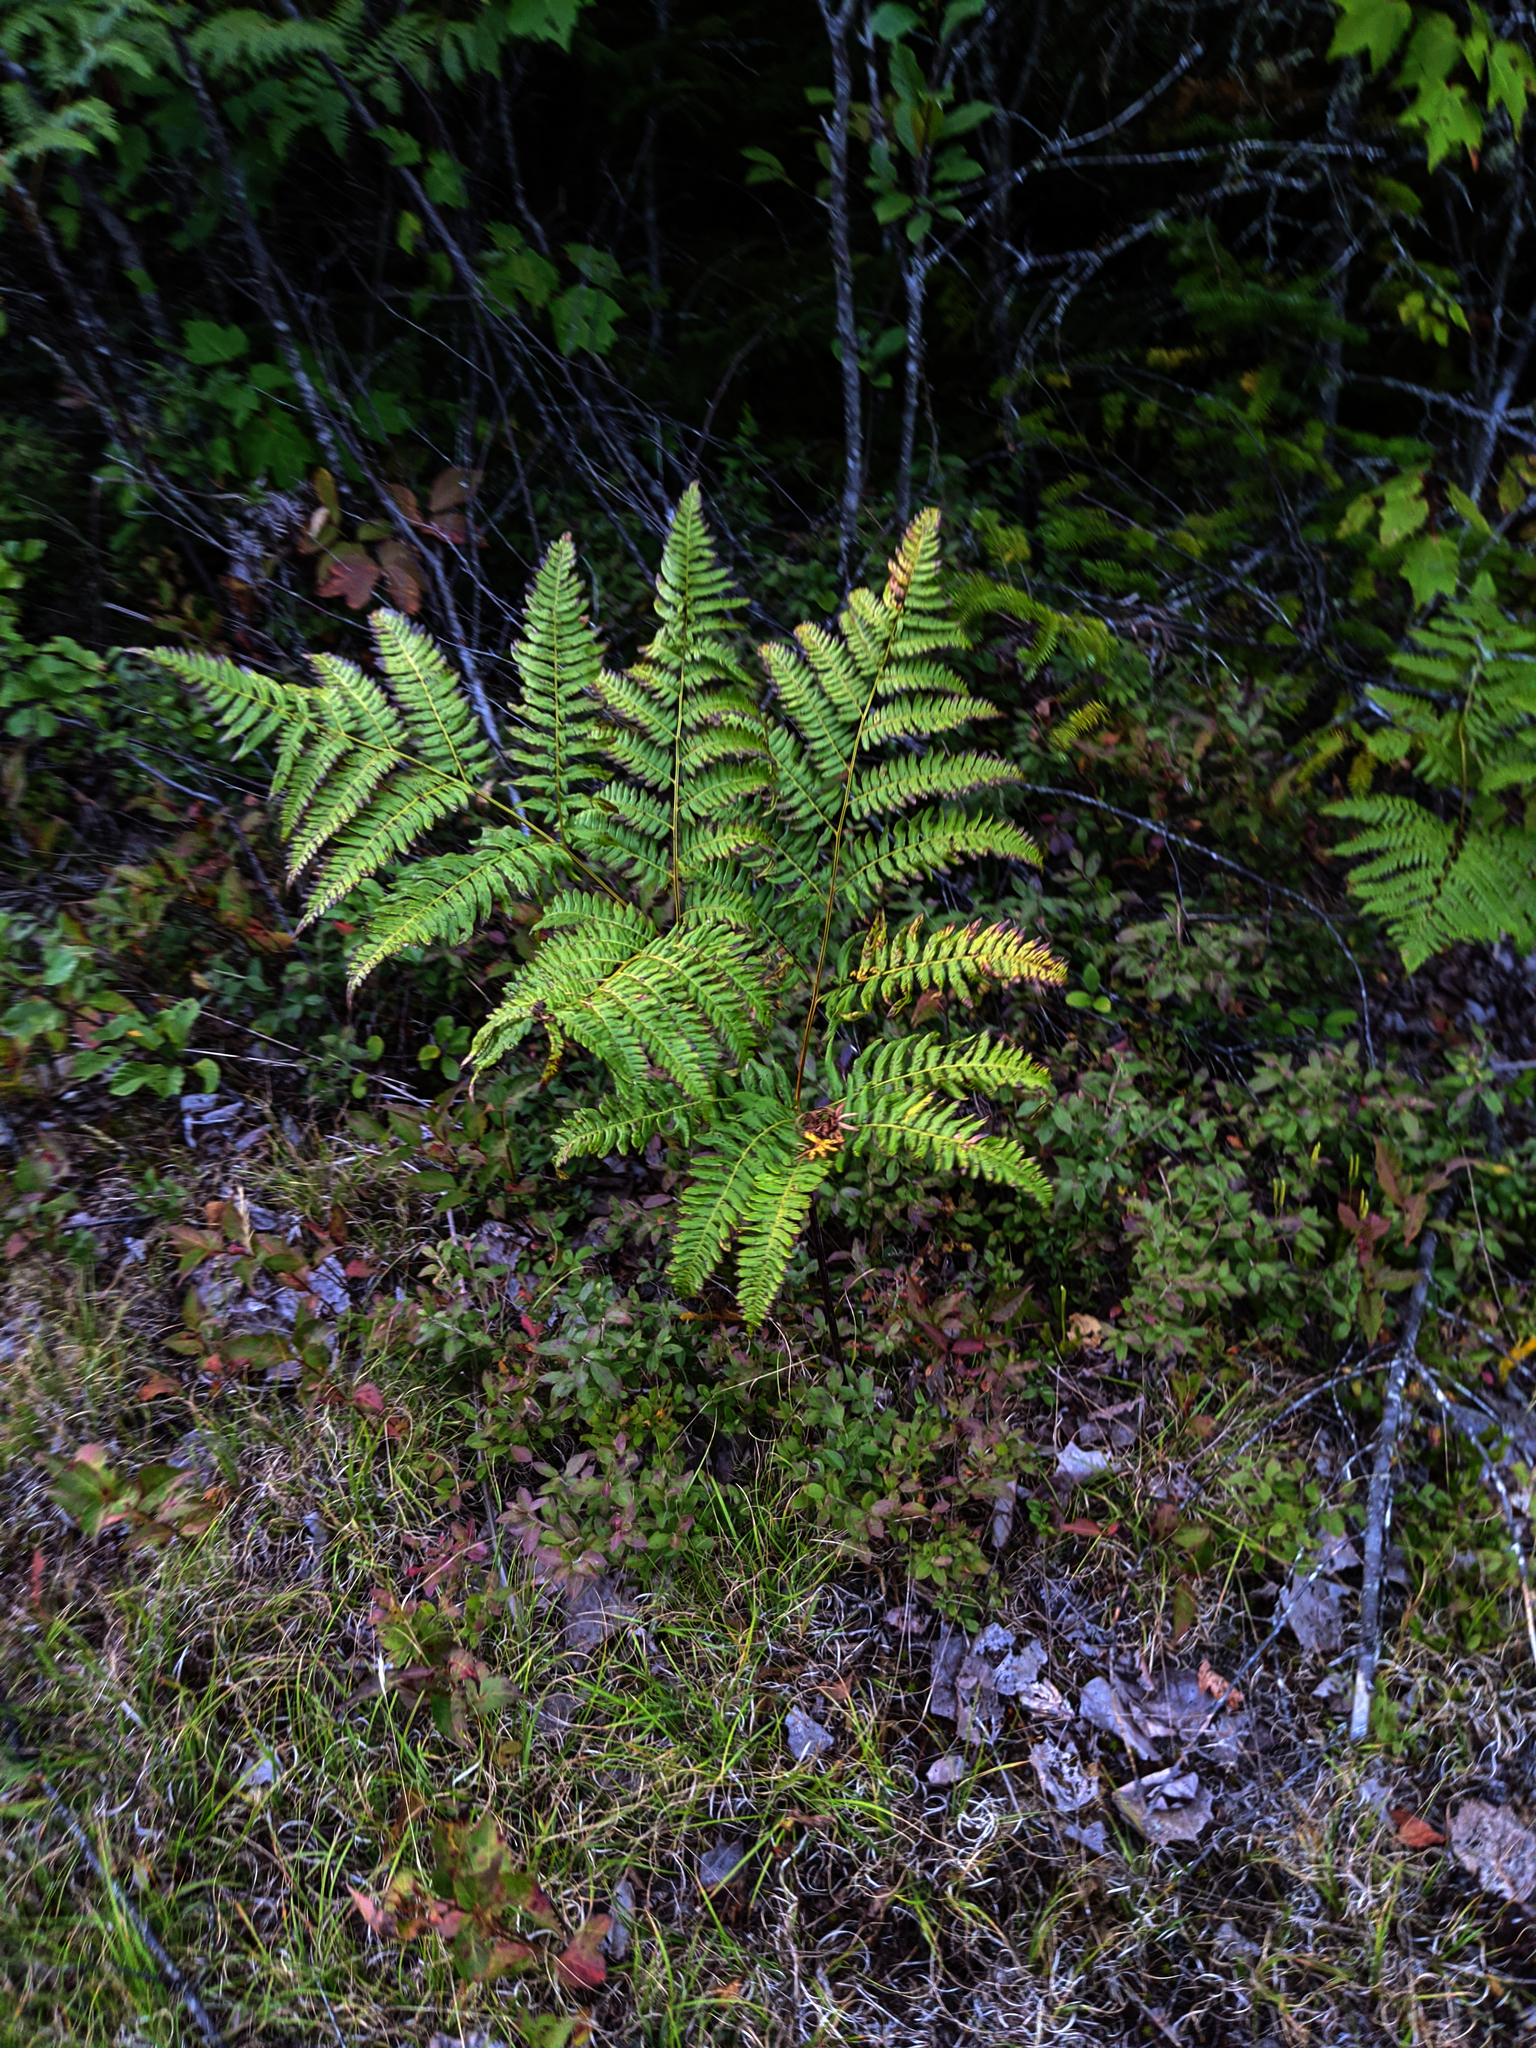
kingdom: Plantae
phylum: Tracheophyta
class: Polypodiopsida
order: Polypodiales
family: Dennstaedtiaceae
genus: Pteridium
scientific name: Pteridium aquilinum
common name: Bracken
